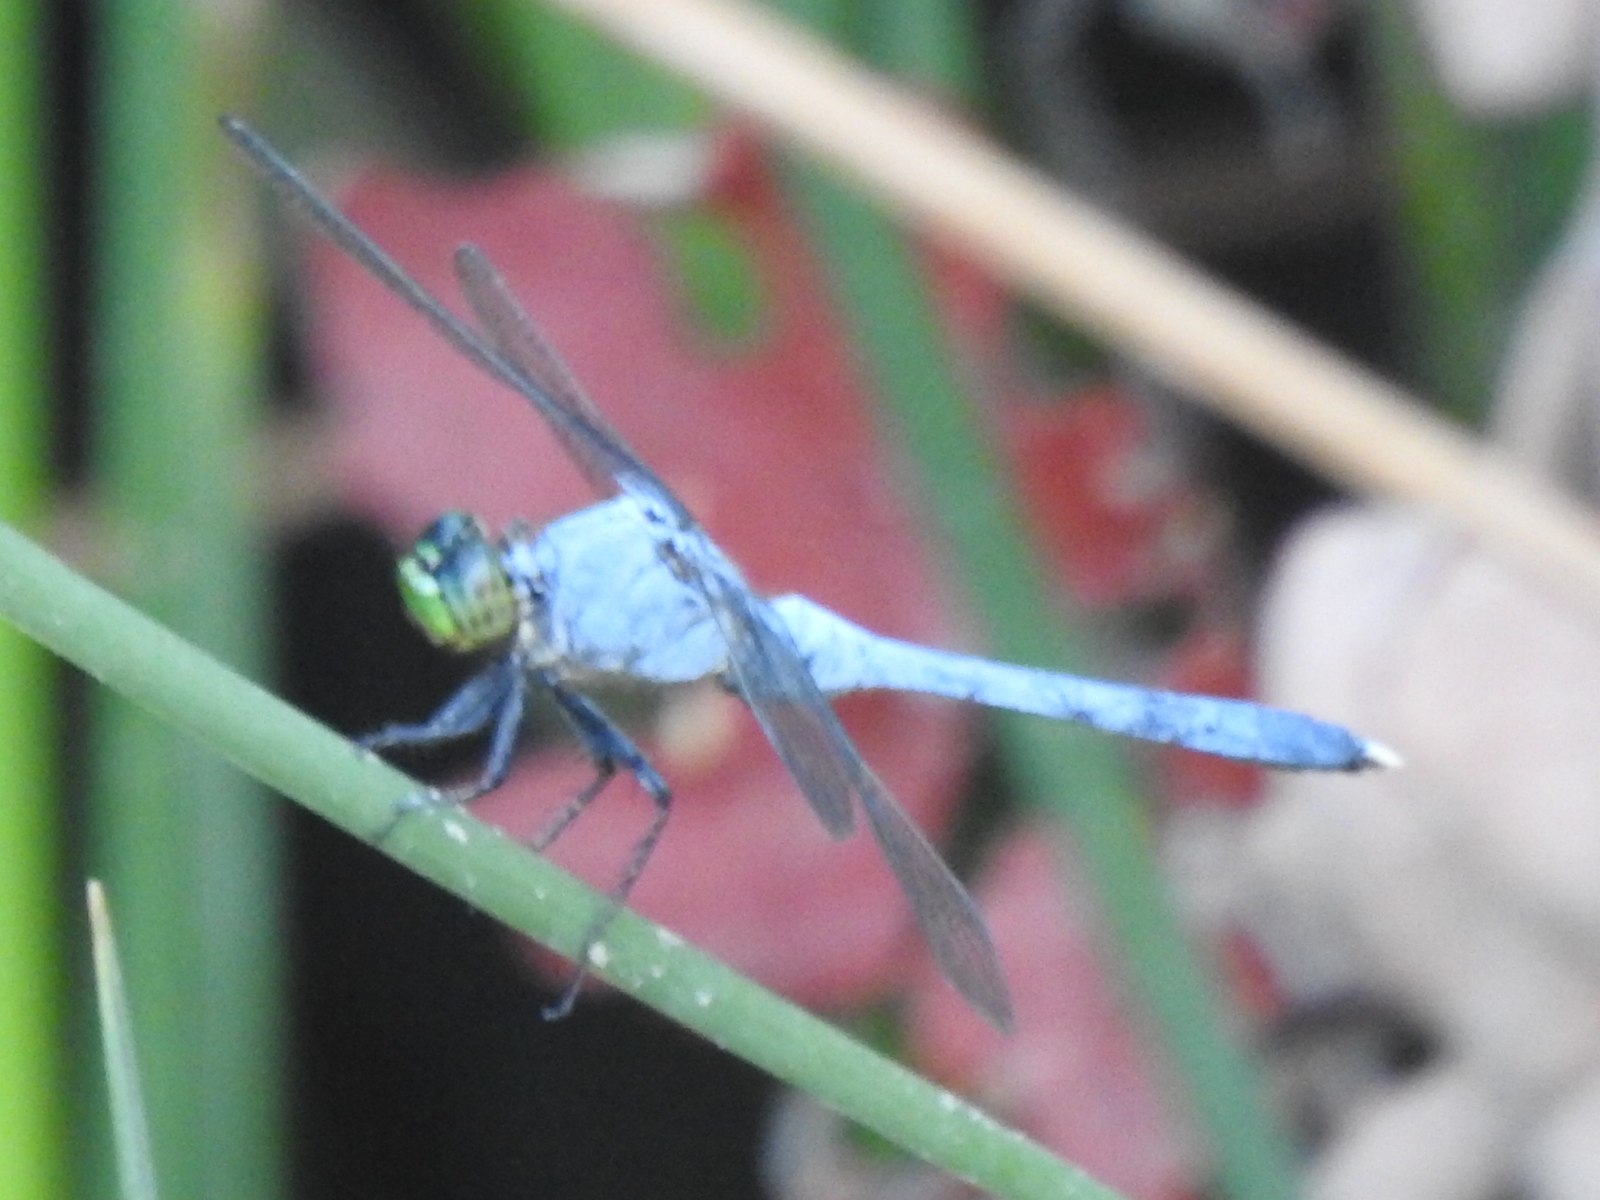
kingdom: Animalia
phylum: Arthropoda
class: Insecta
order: Odonata
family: Libellulidae
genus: Erythemis
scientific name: Erythemis simplicicollis
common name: Eastern pondhawk
